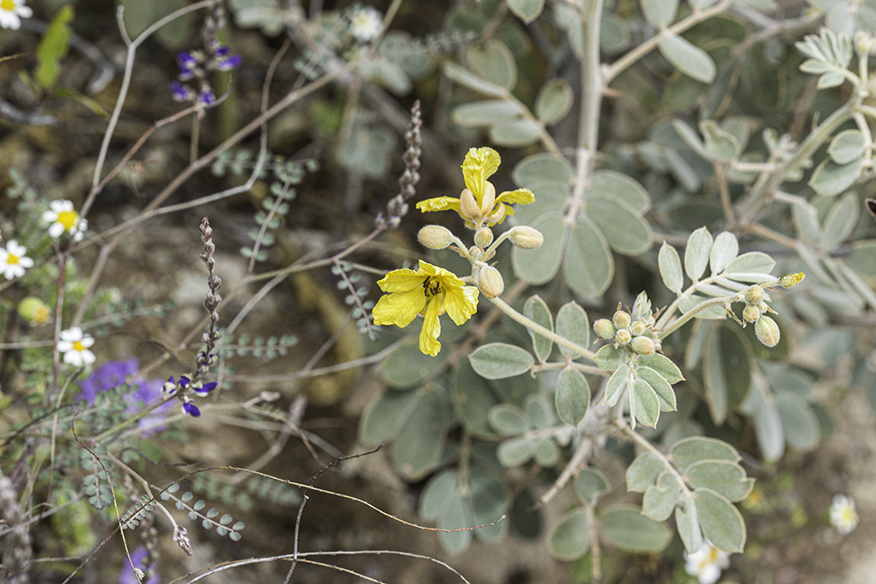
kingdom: Plantae
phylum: Tracheophyta
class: Magnoliopsida
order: Fabales
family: Fabaceae
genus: Senna
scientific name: Senna covesii
